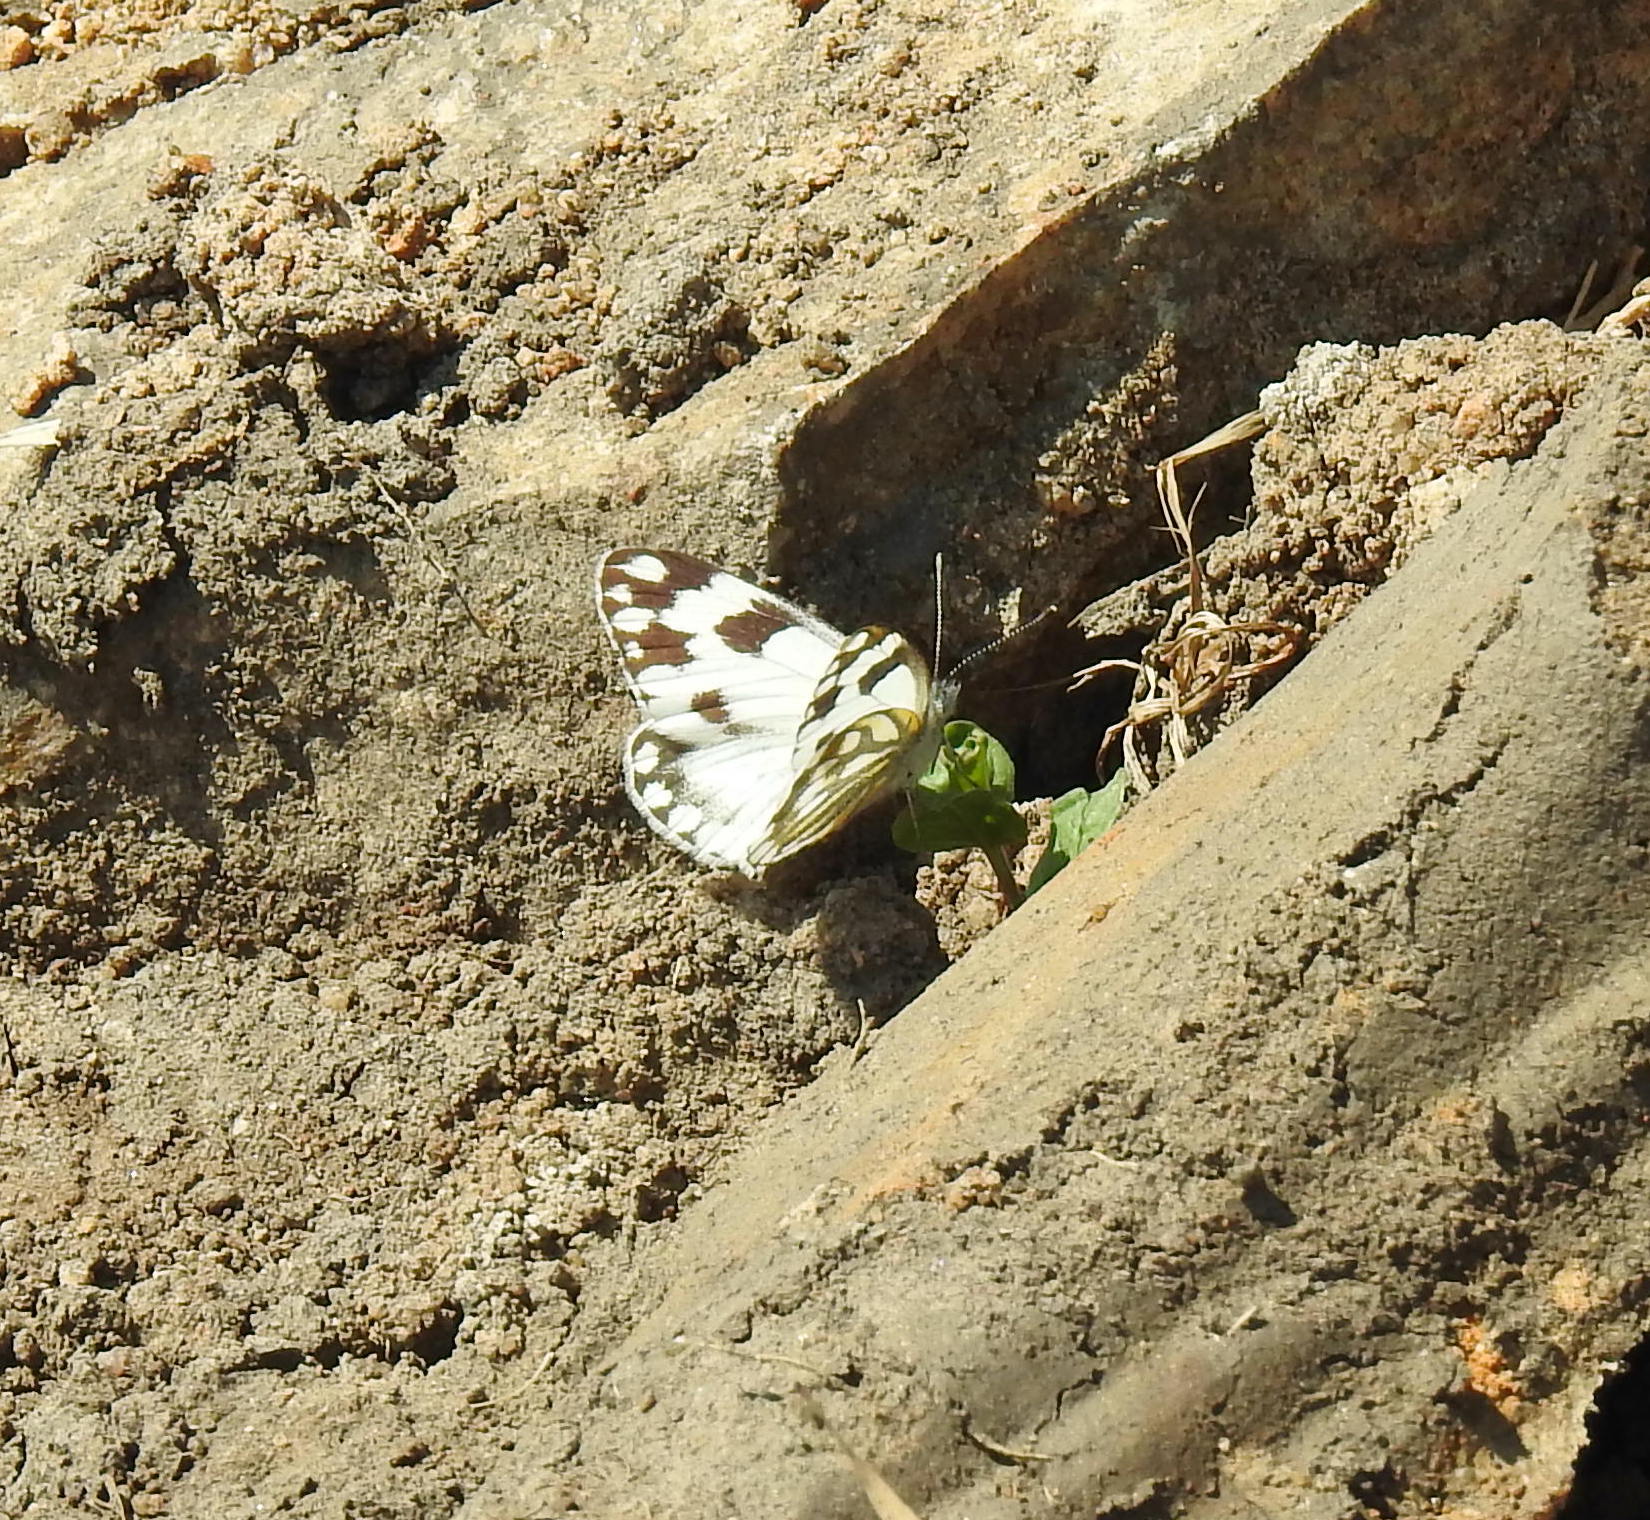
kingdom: Animalia
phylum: Arthropoda
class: Insecta
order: Lepidoptera
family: Pieridae
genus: Pontia
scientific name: Pontia helice
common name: Meadow white
